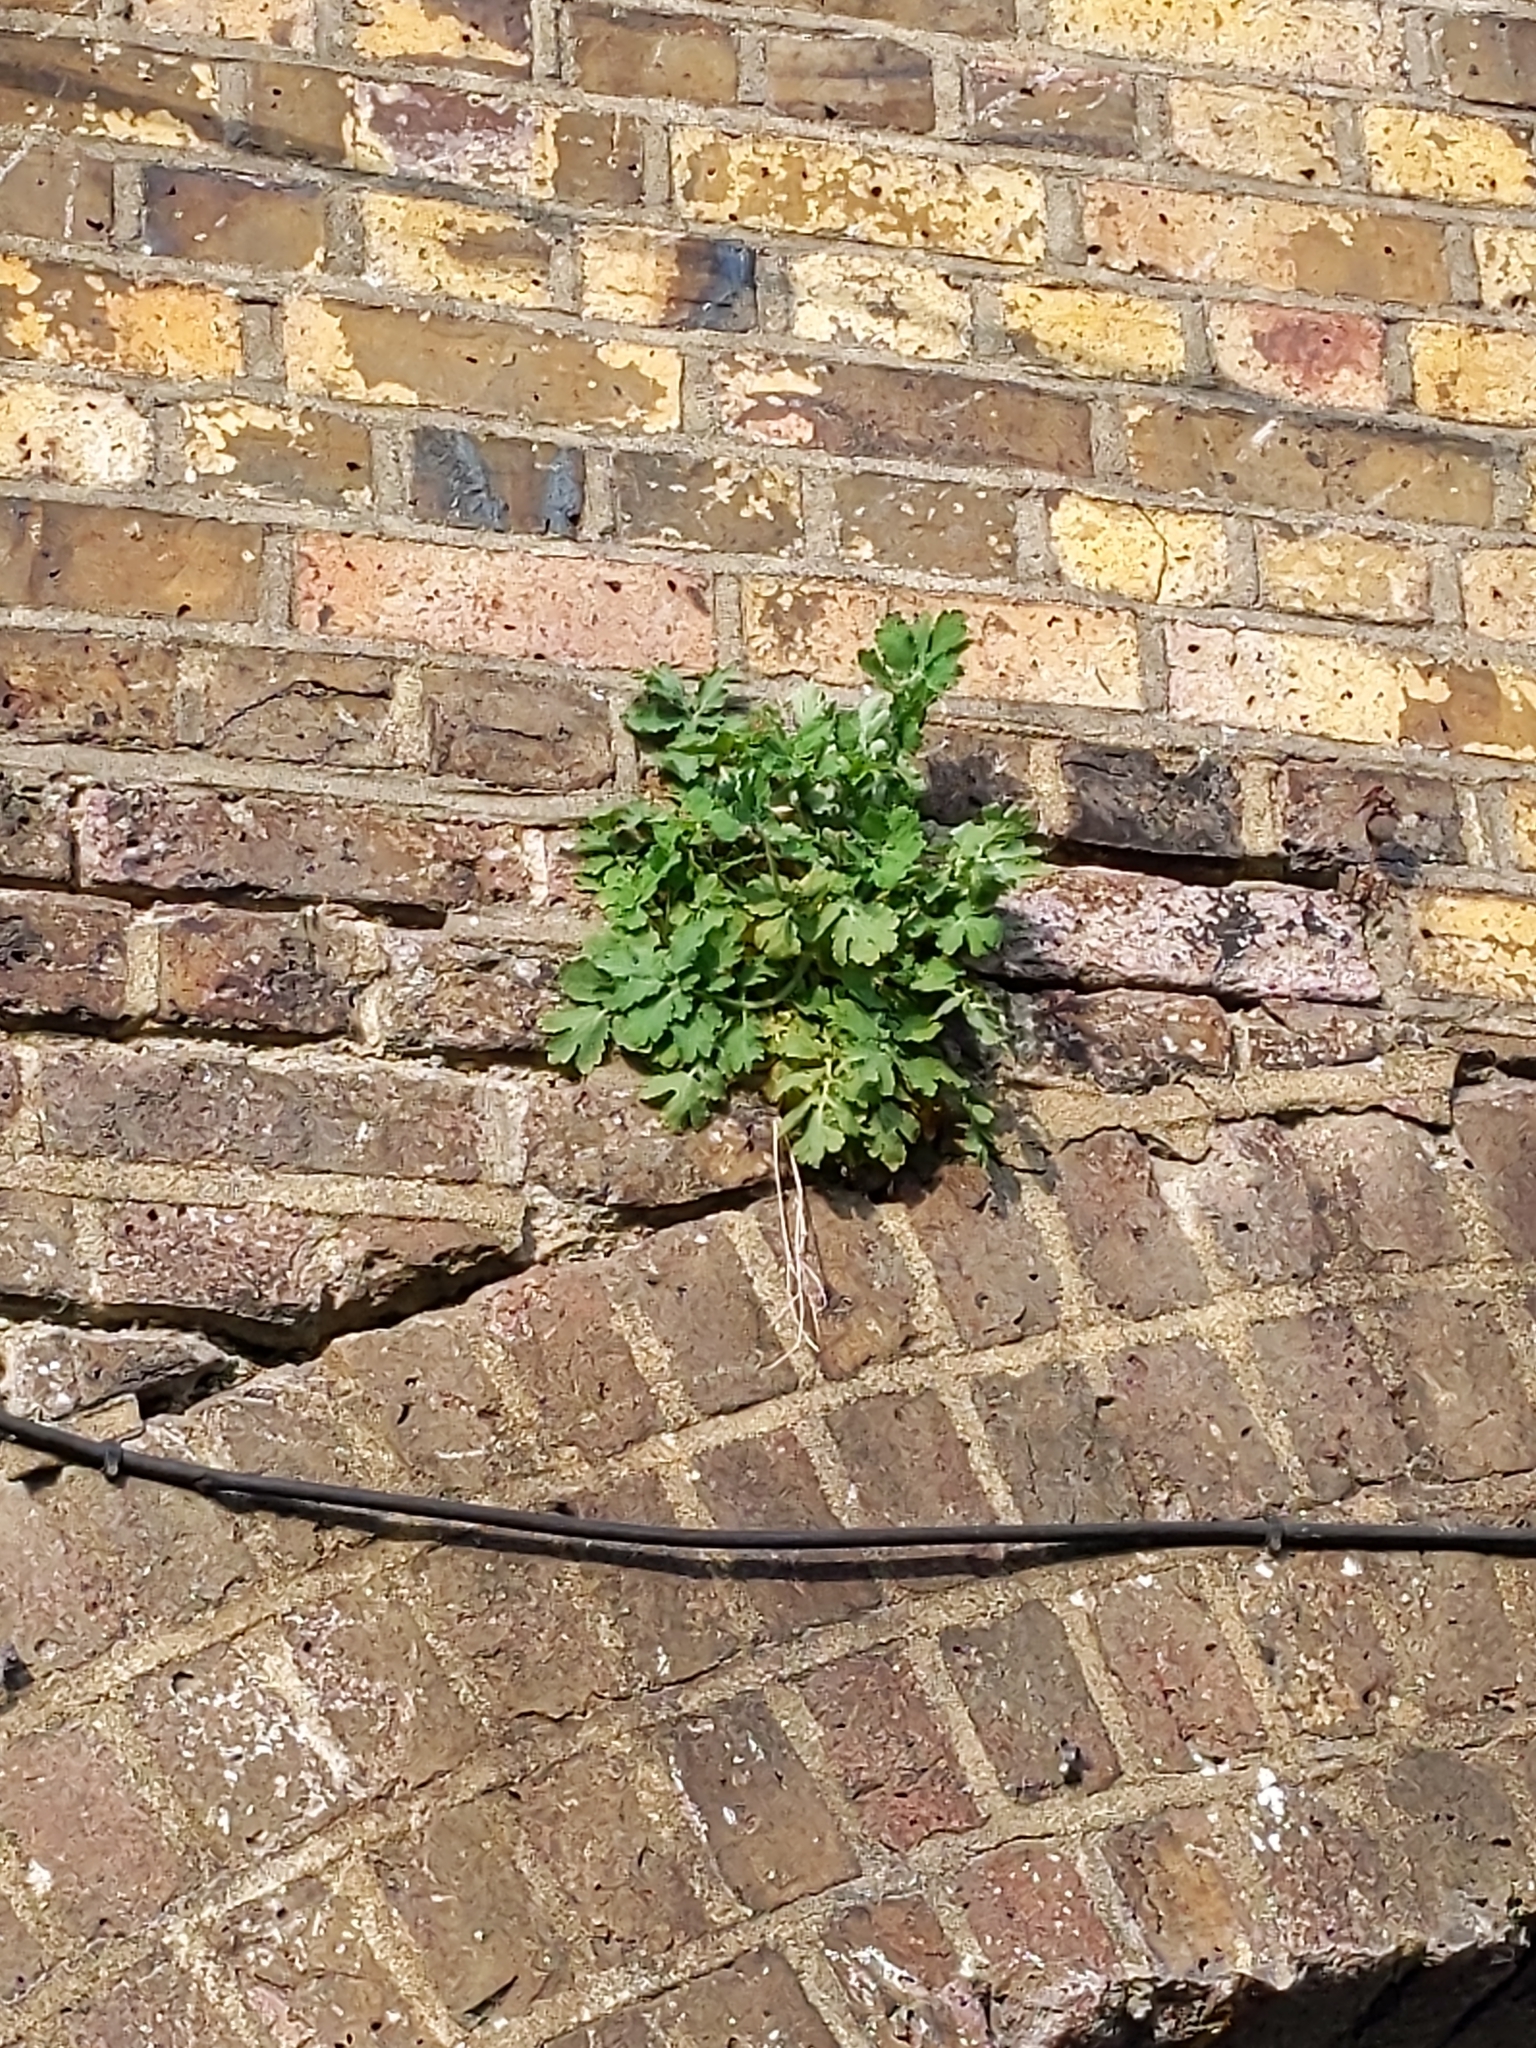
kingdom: Plantae
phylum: Tracheophyta
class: Magnoliopsida
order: Ranunculales
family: Papaveraceae
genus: Chelidonium
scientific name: Chelidonium majus
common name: Greater celandine
